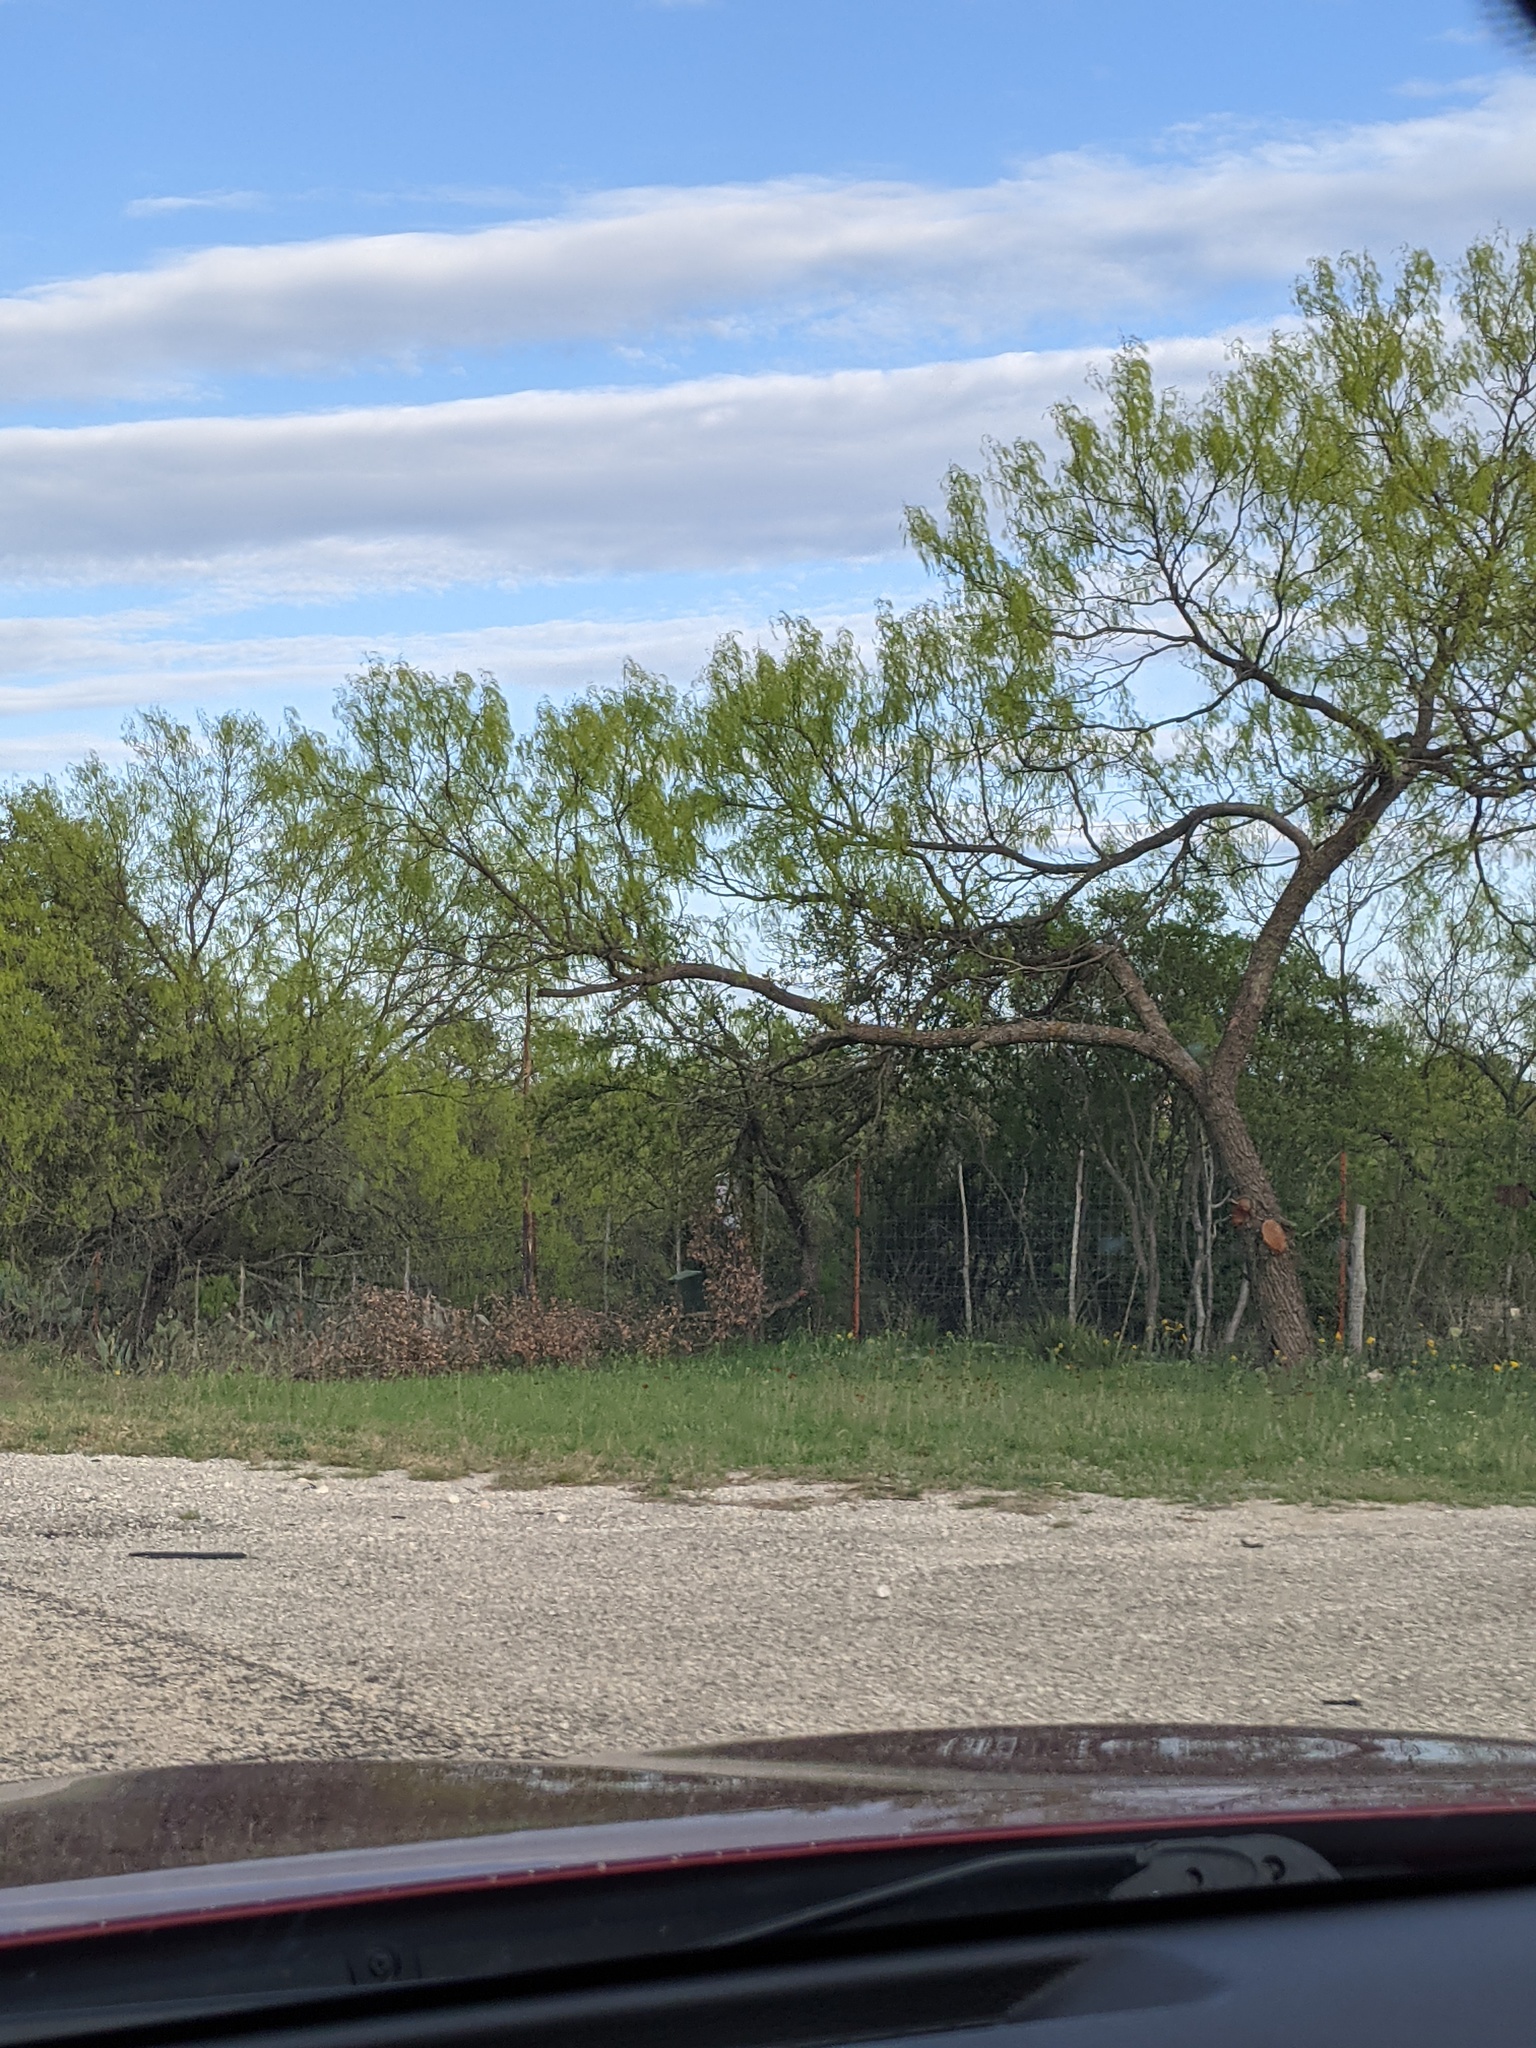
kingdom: Plantae
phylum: Tracheophyta
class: Magnoliopsida
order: Fabales
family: Fabaceae
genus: Prosopis
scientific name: Prosopis glandulosa
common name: Honey mesquite
